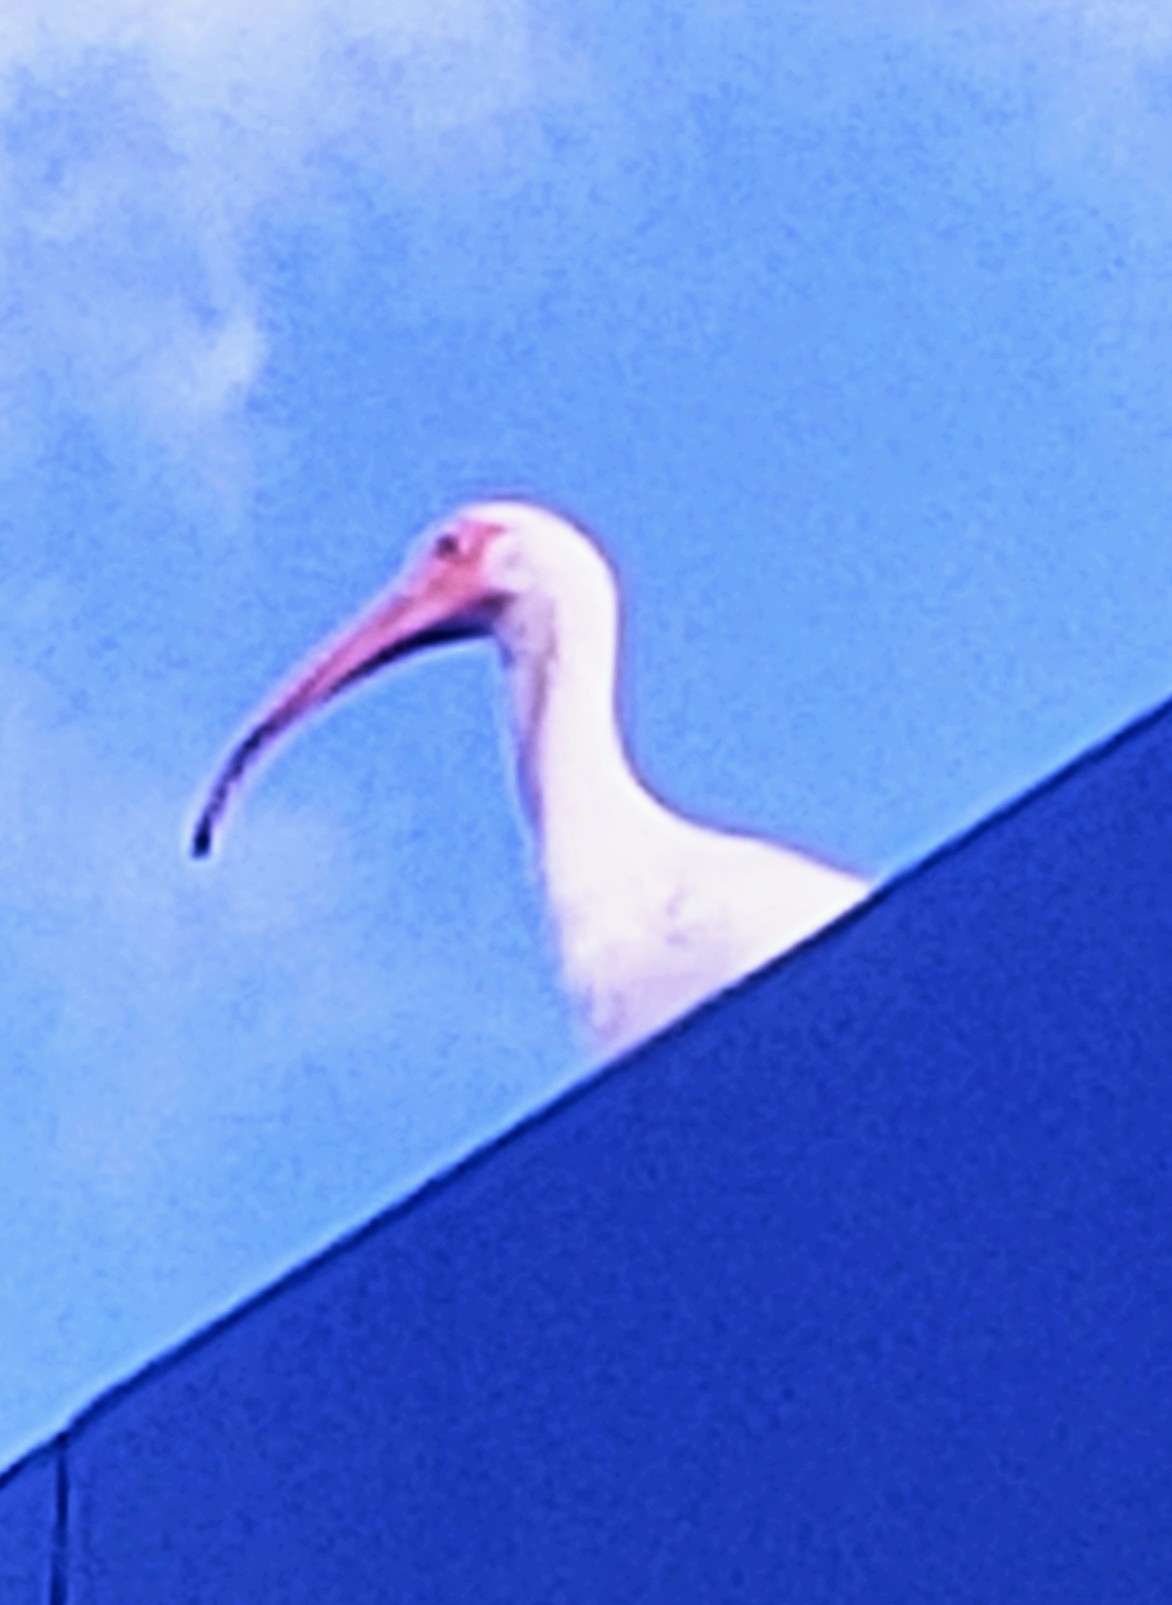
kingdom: Animalia
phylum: Chordata
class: Aves
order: Pelecaniformes
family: Threskiornithidae
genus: Eudocimus
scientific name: Eudocimus albus
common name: White ibis
